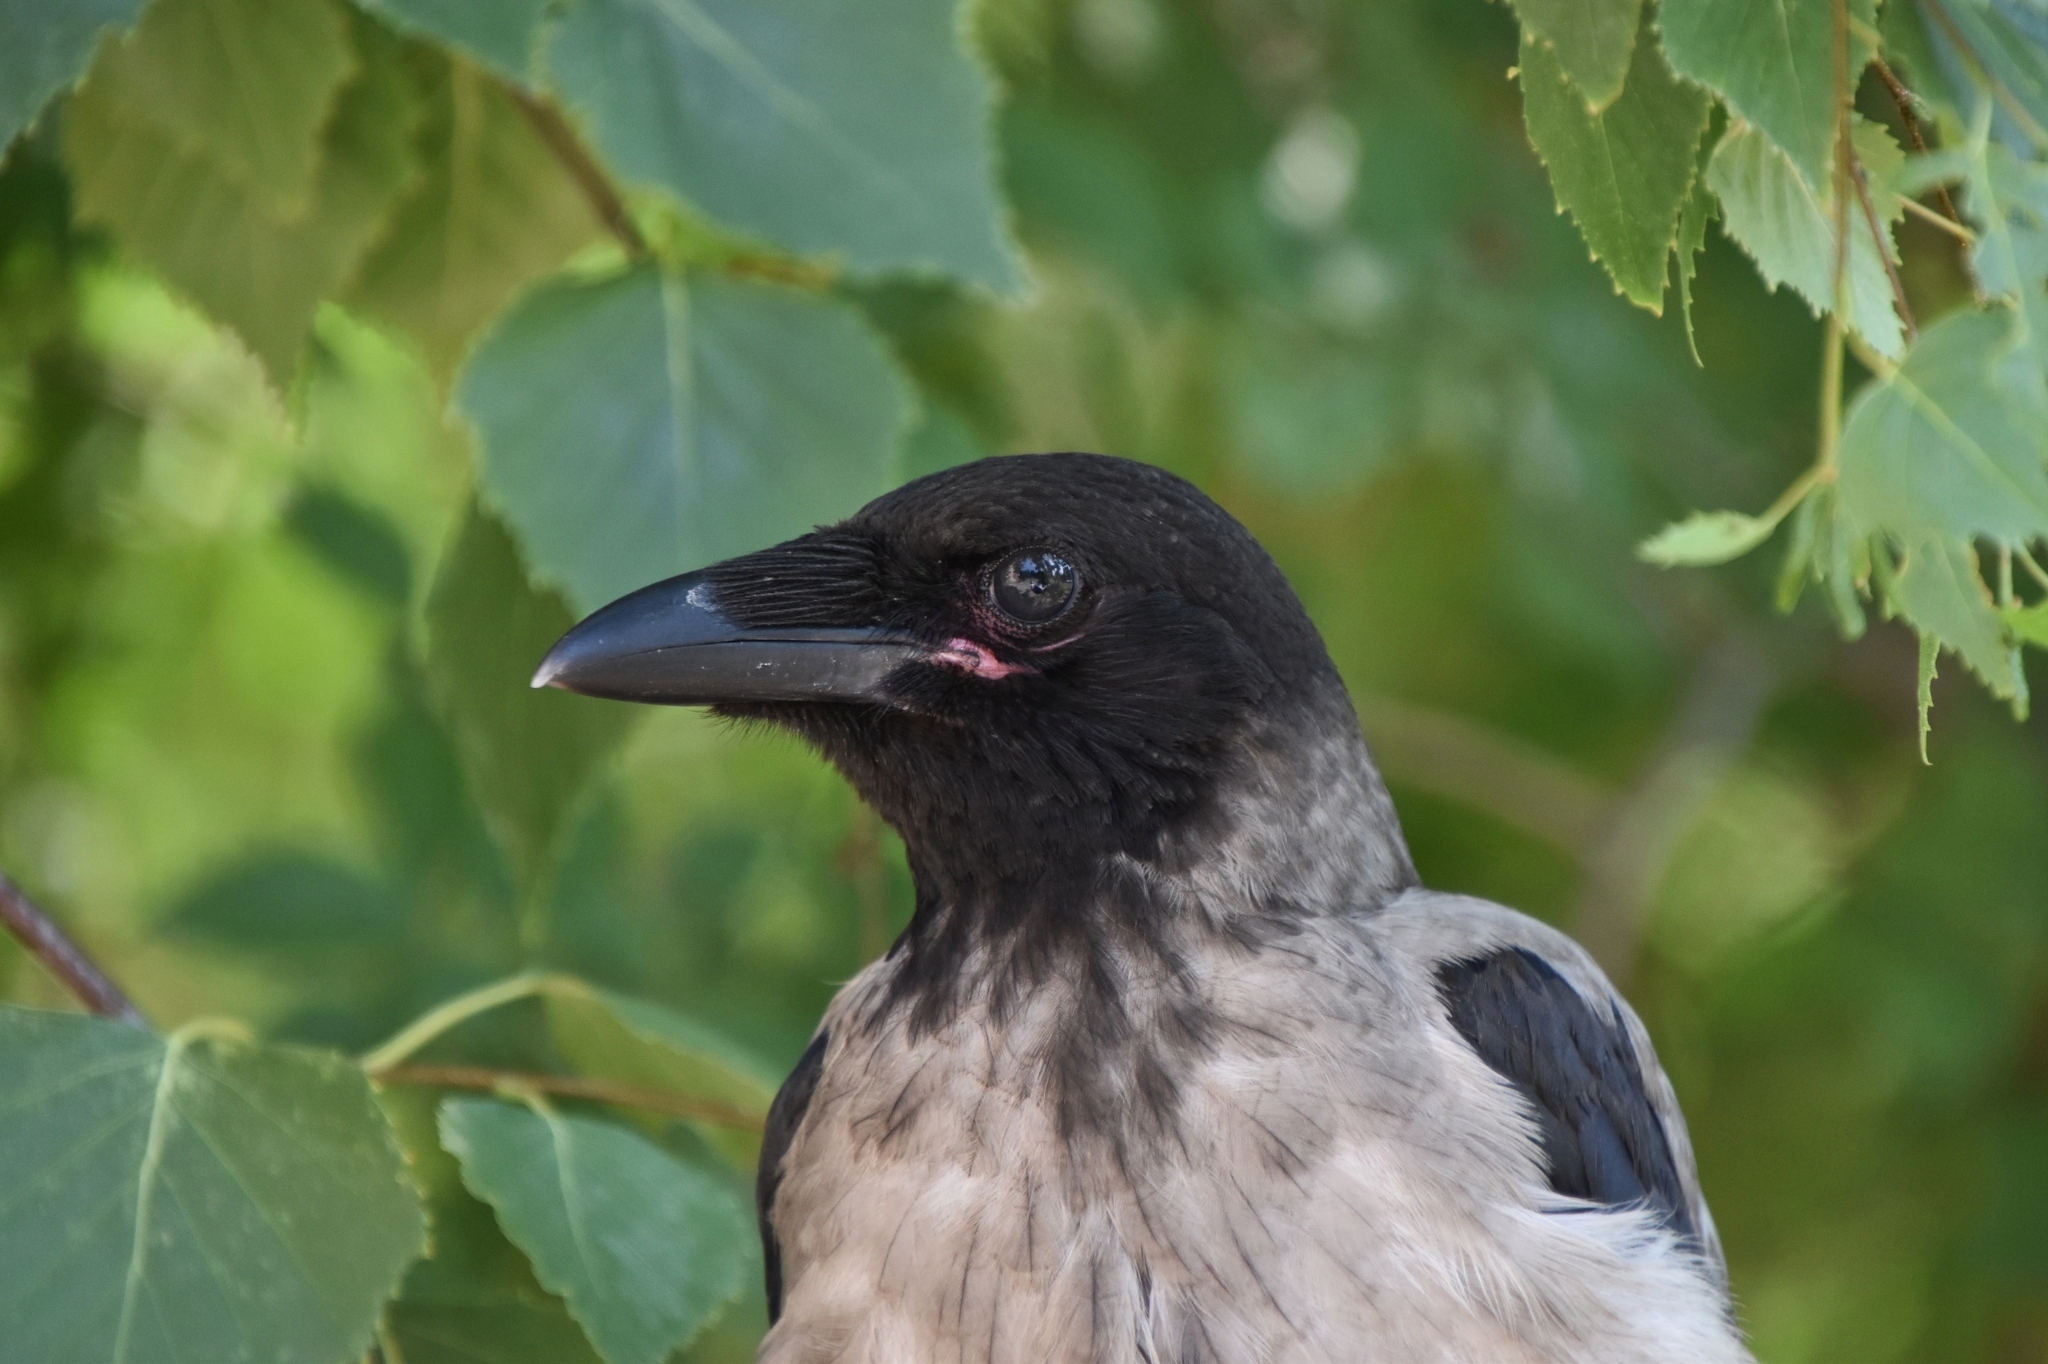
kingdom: Animalia
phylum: Chordata
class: Aves
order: Passeriformes
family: Corvidae
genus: Corvus
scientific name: Corvus cornix
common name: Hooded crow
